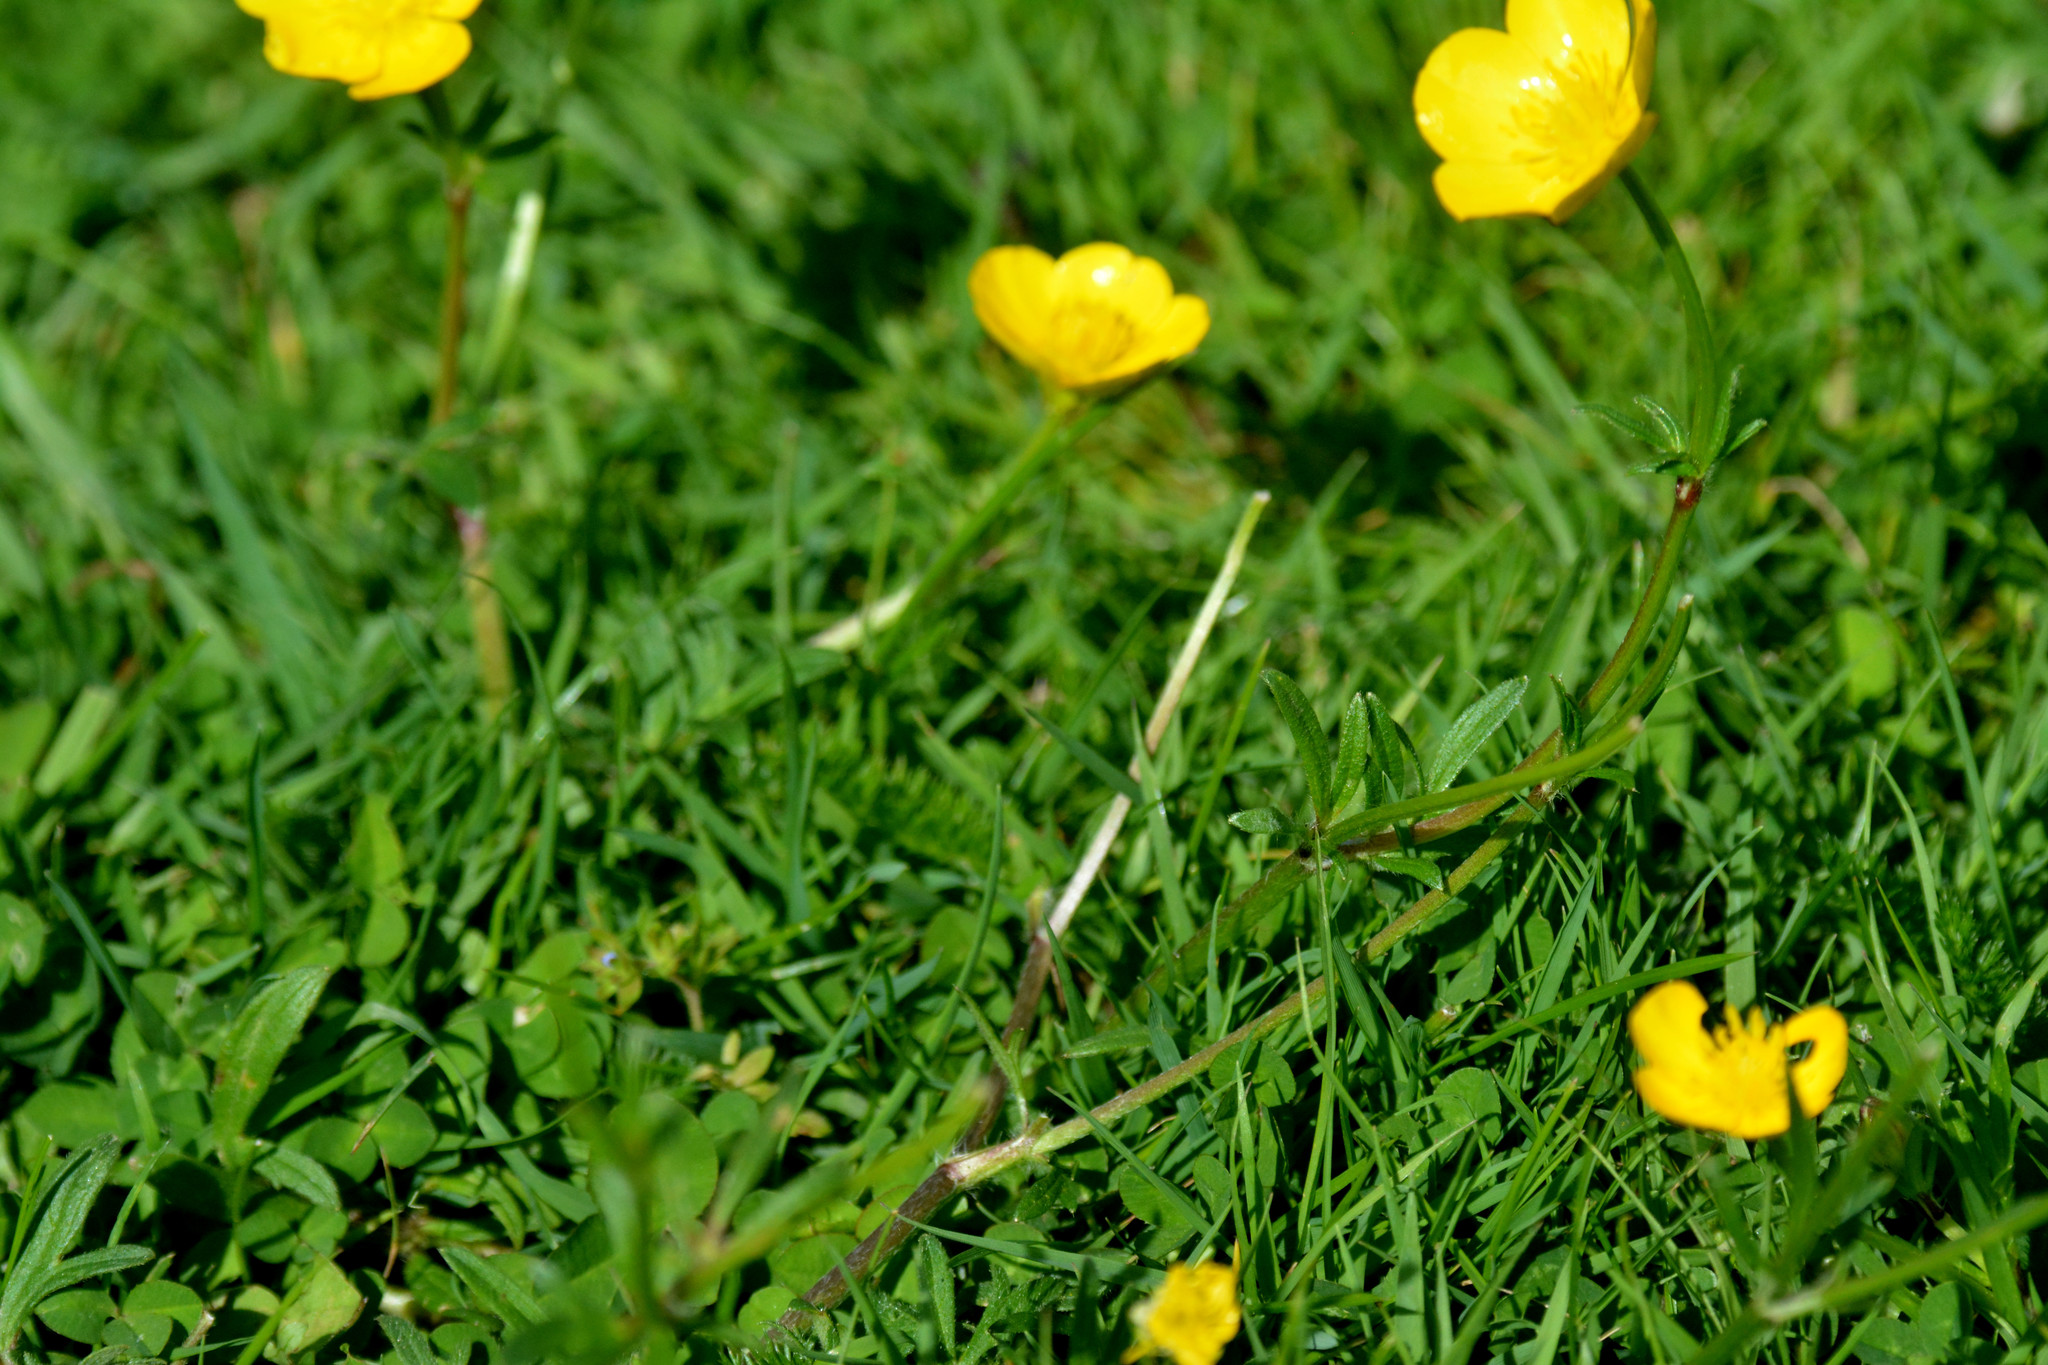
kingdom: Plantae
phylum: Tracheophyta
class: Magnoliopsida
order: Ranunculales
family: Ranunculaceae
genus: Ranunculus
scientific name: Ranunculus bulbosus
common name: Bulbous buttercup
